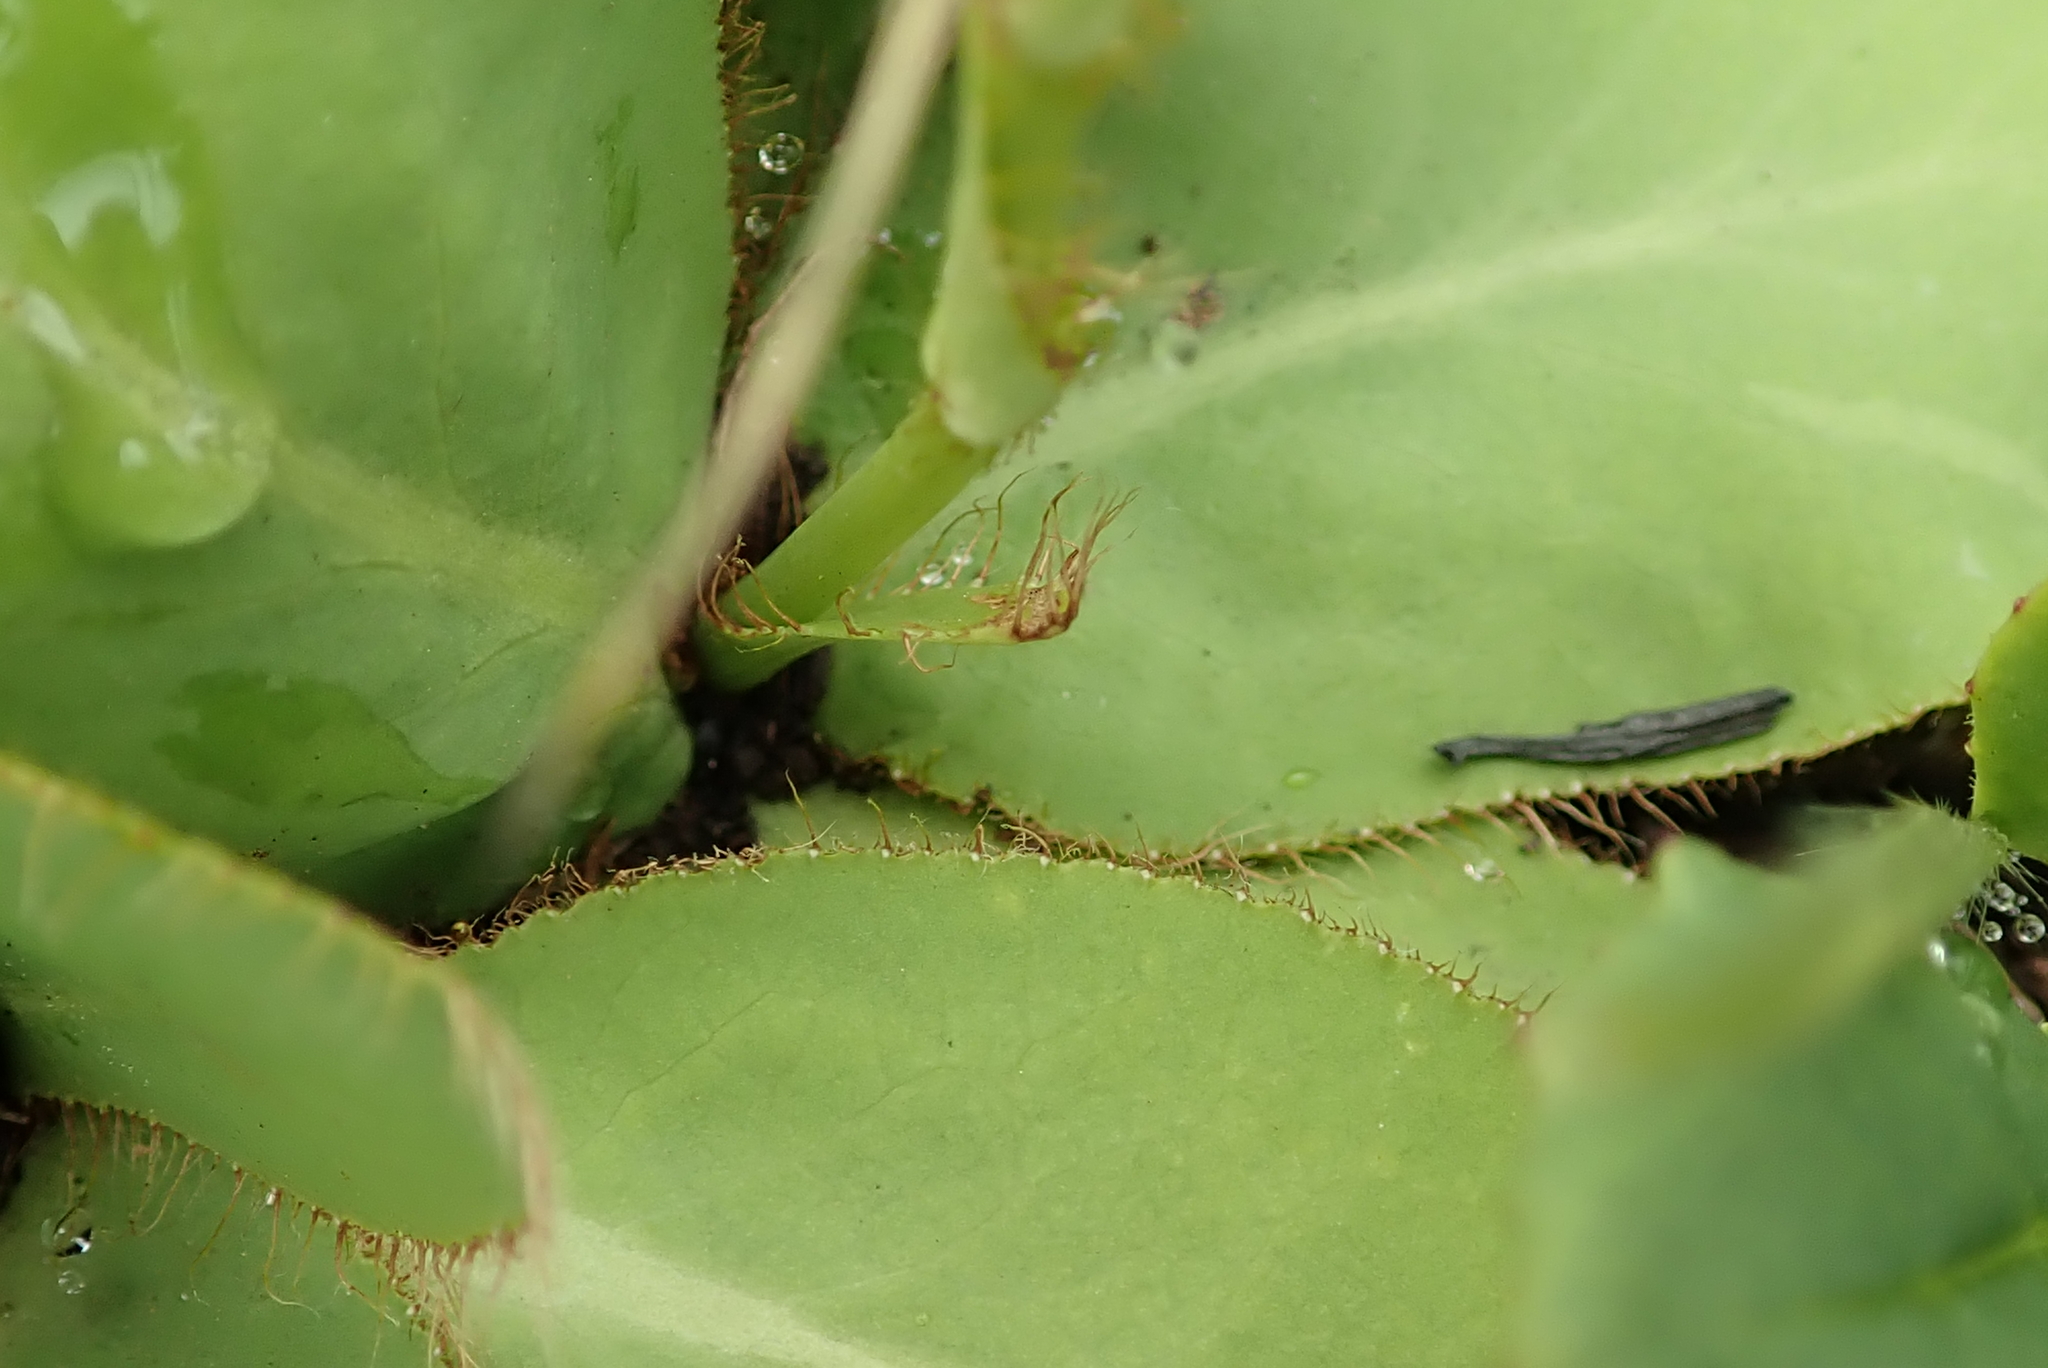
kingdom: Plantae
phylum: Tracheophyta
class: Magnoliopsida
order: Apiales
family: Apiaceae
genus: Alepidea
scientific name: Alepidea natalensis
